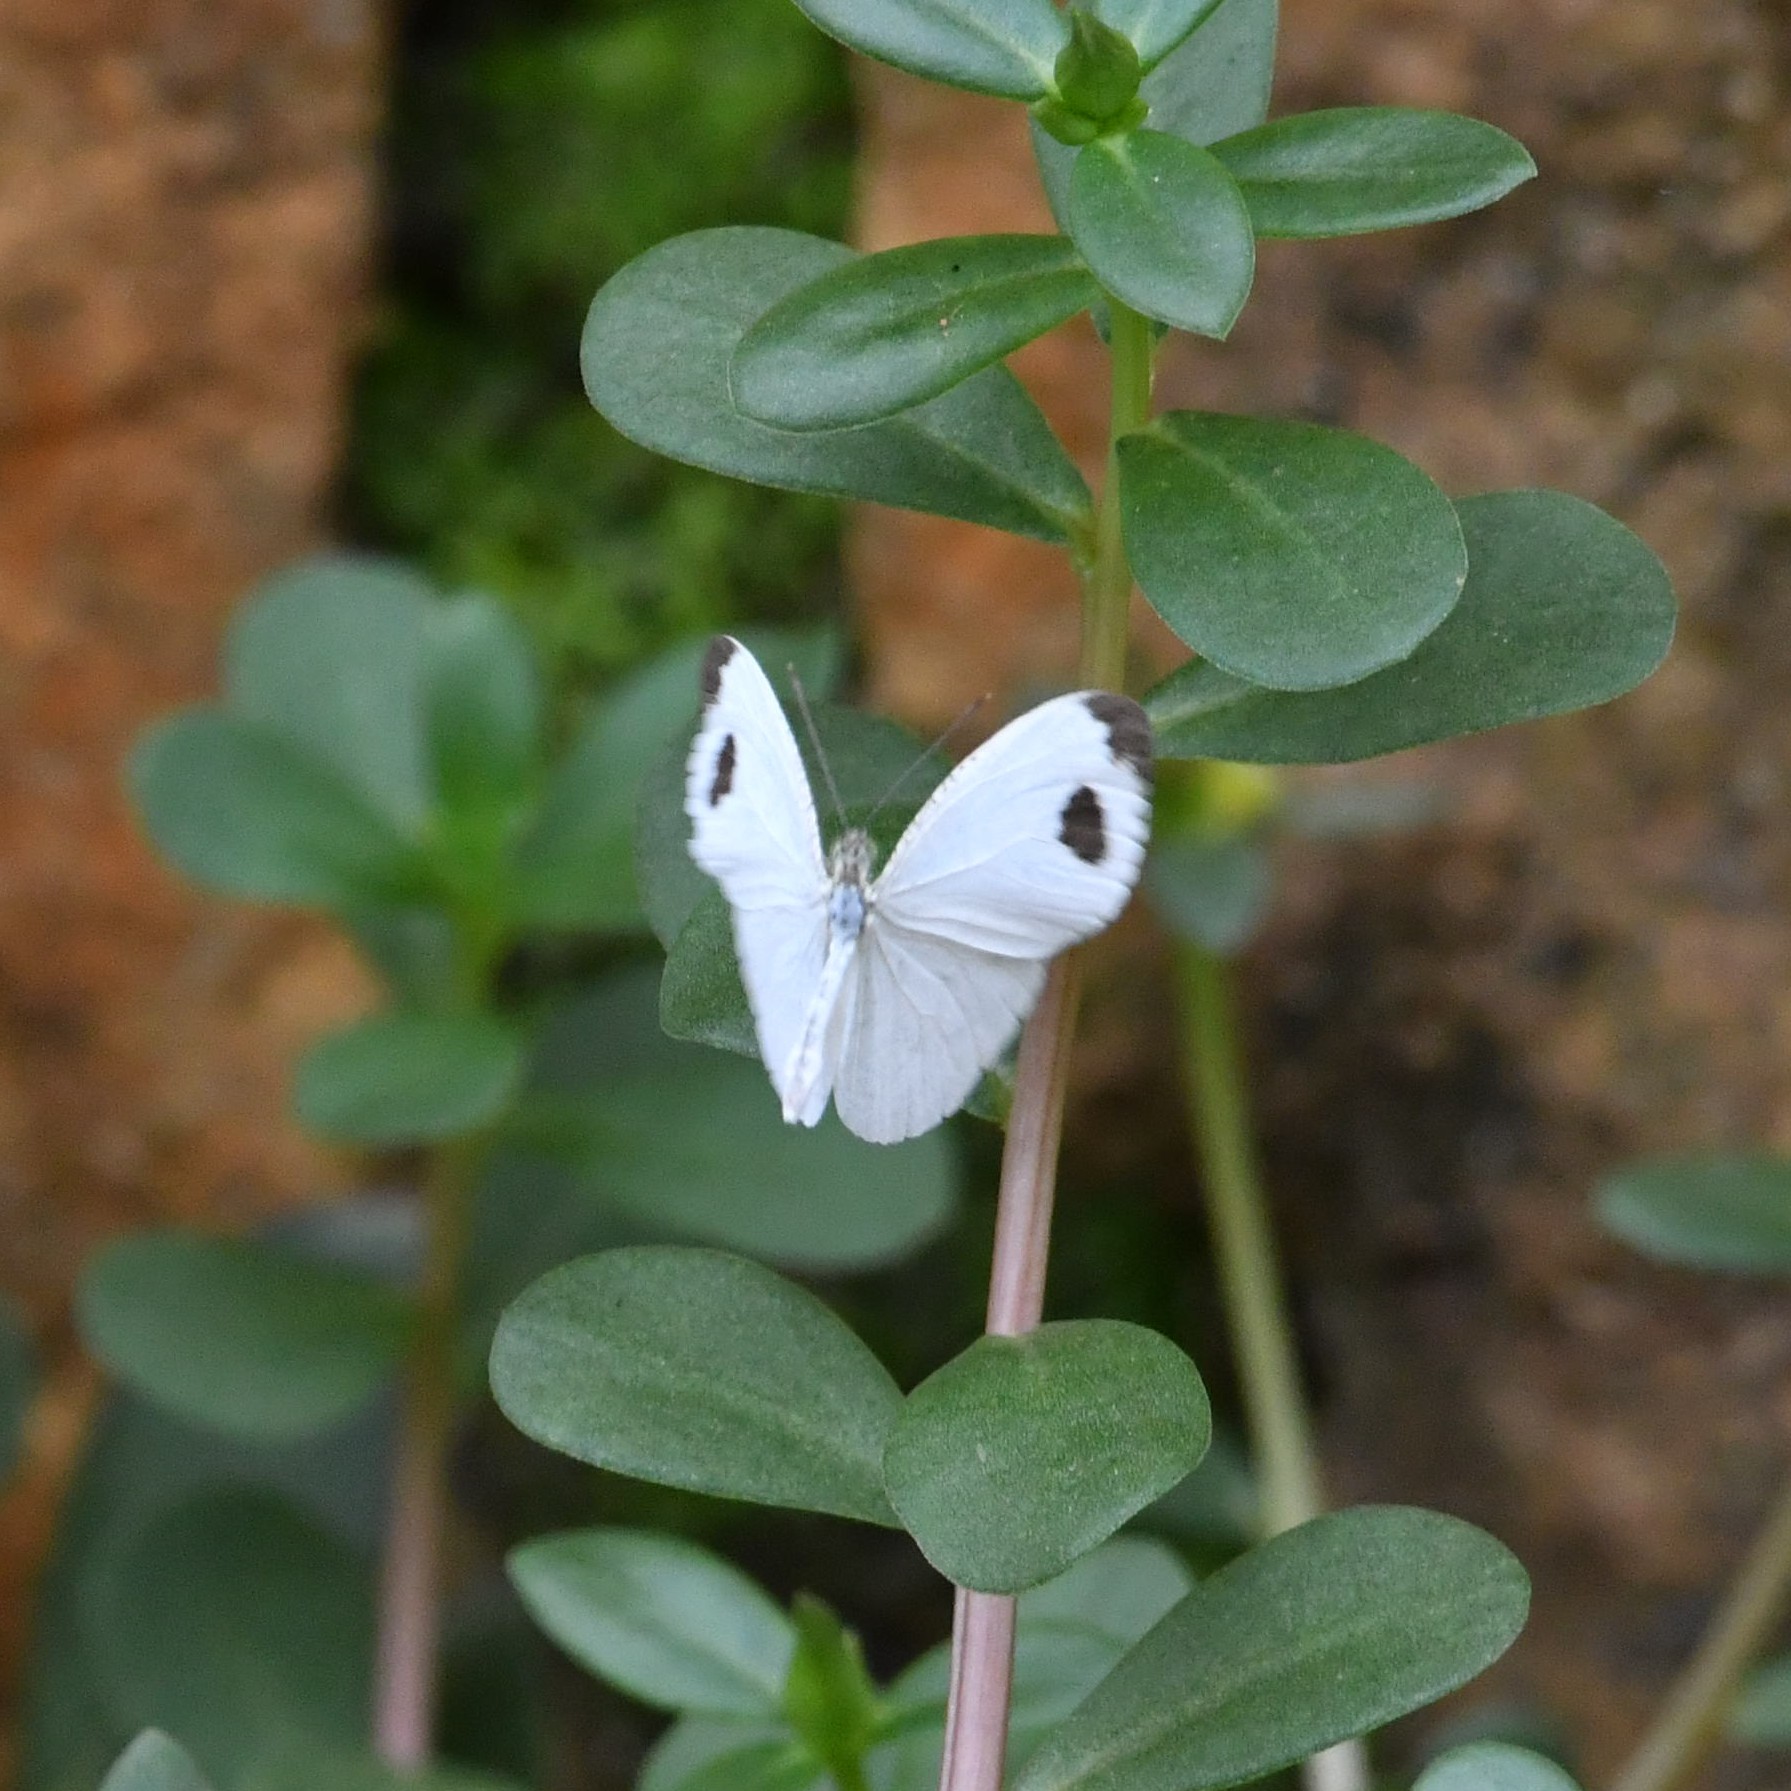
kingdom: Animalia
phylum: Arthropoda
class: Insecta
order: Lepidoptera
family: Pieridae
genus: Leptosia
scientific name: Leptosia nina
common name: Psyche
